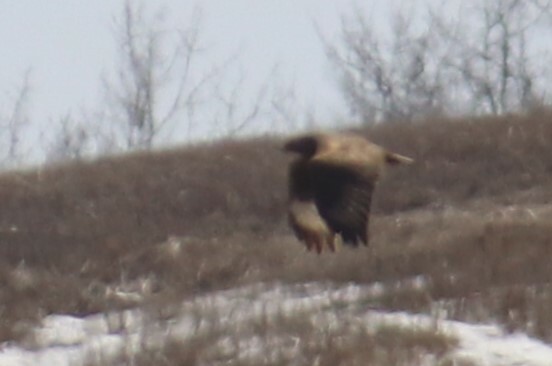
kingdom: Animalia
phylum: Chordata
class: Aves
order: Accipitriformes
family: Accipitridae
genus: Buteo
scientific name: Buteo lagopus
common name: Rough-legged buzzard
